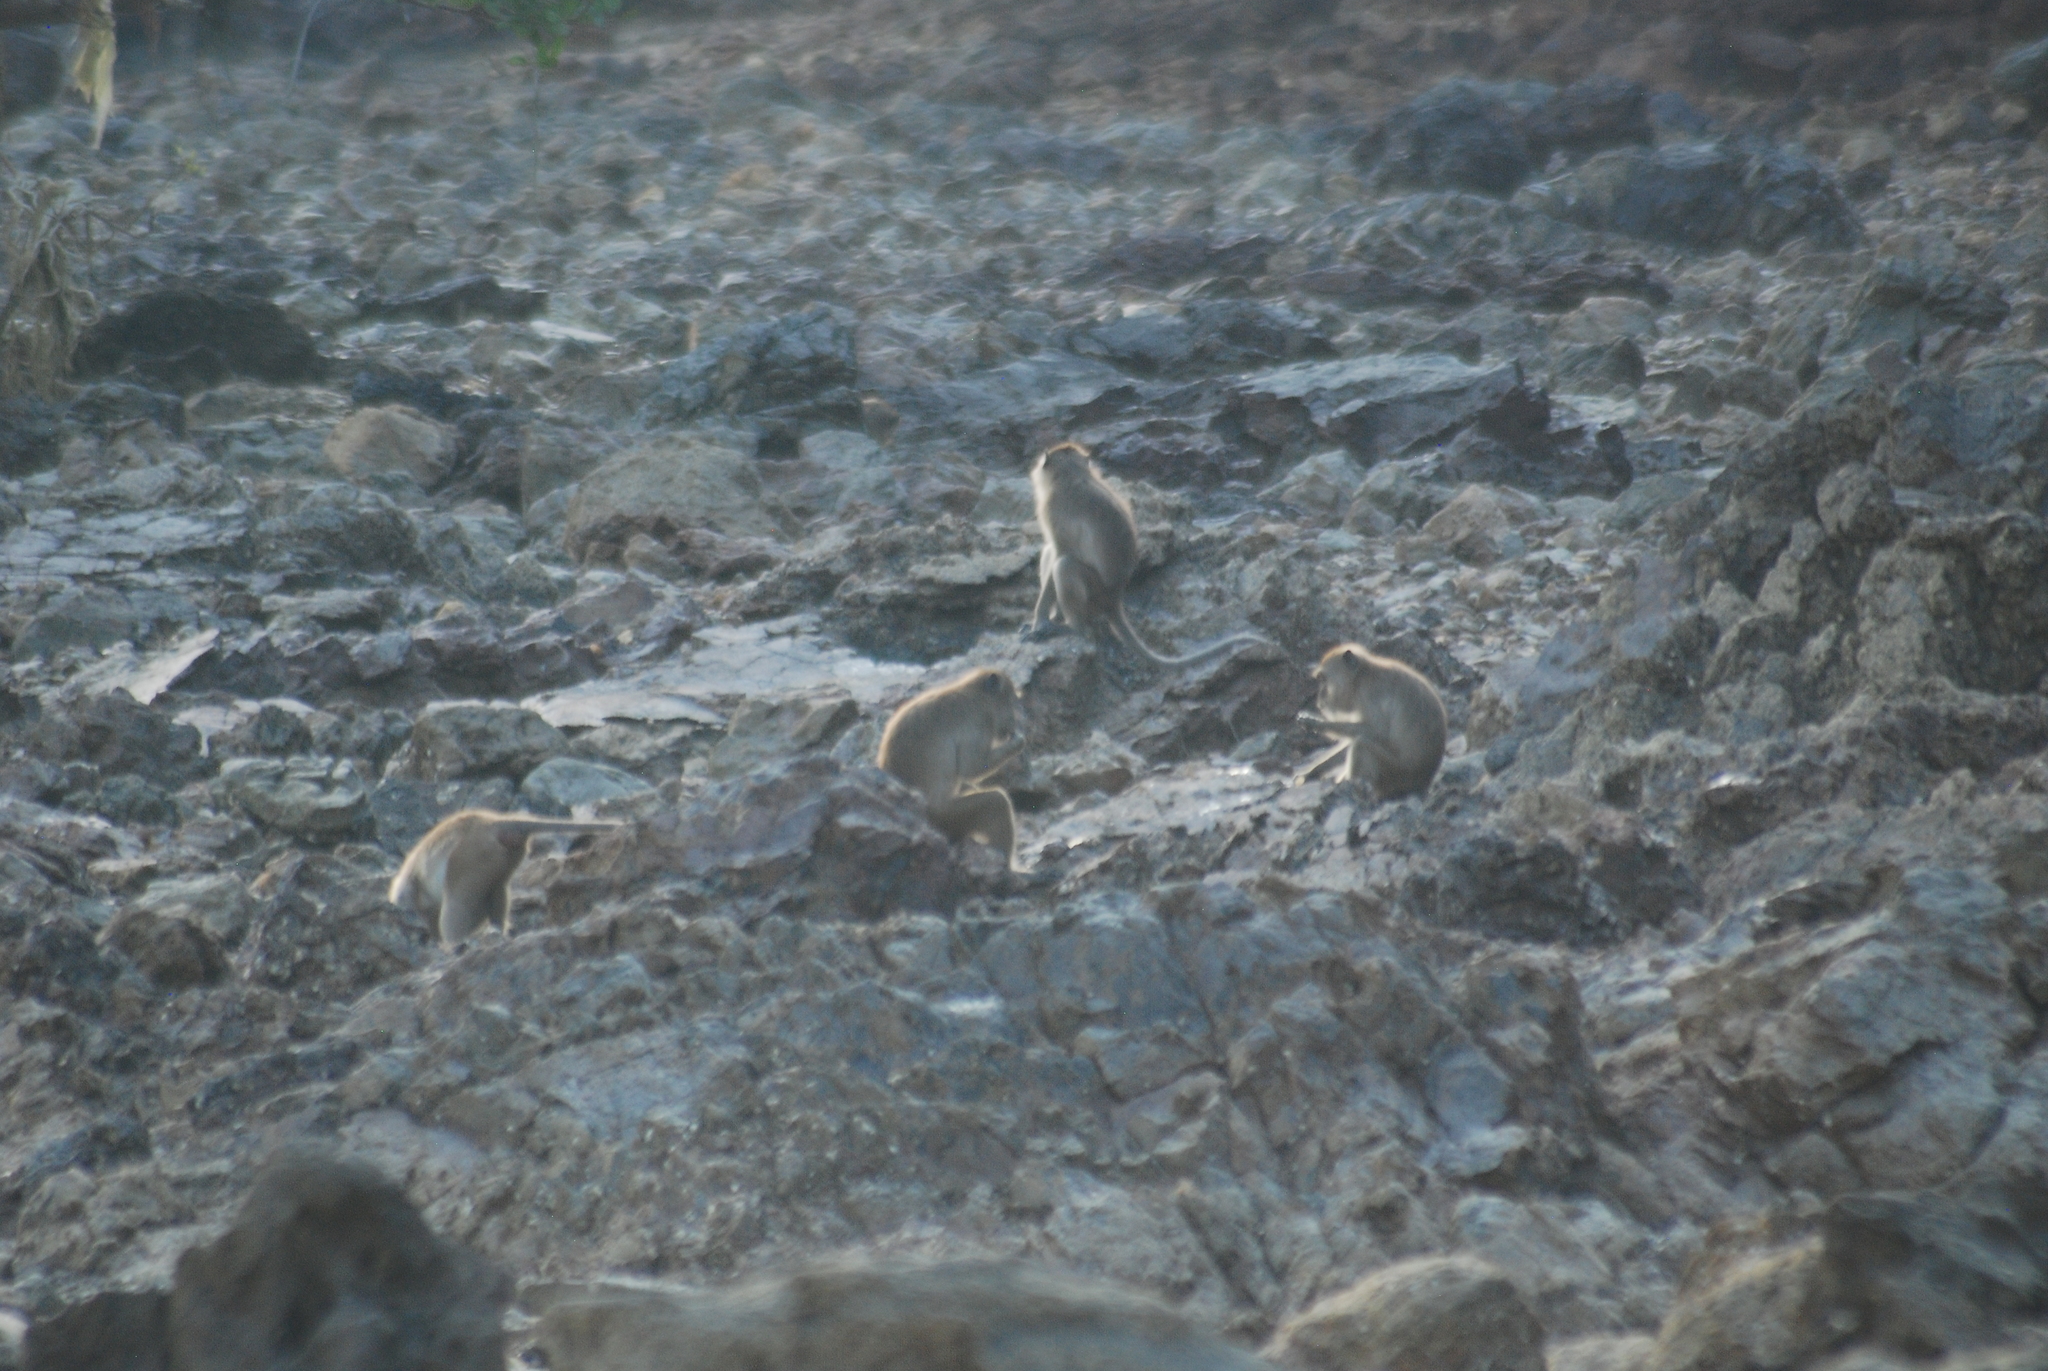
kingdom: Animalia
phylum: Chordata
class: Mammalia
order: Primates
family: Cercopithecidae
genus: Macaca
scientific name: Macaca fascicularis
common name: Crab-eating macaque
